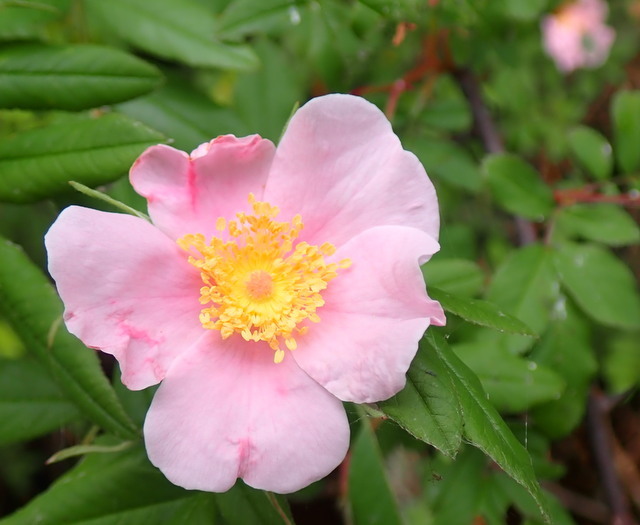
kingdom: Plantae
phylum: Tracheophyta
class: Magnoliopsida
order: Rosales
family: Rosaceae
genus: Rosa
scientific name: Rosa palustris
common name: Swamp rose
